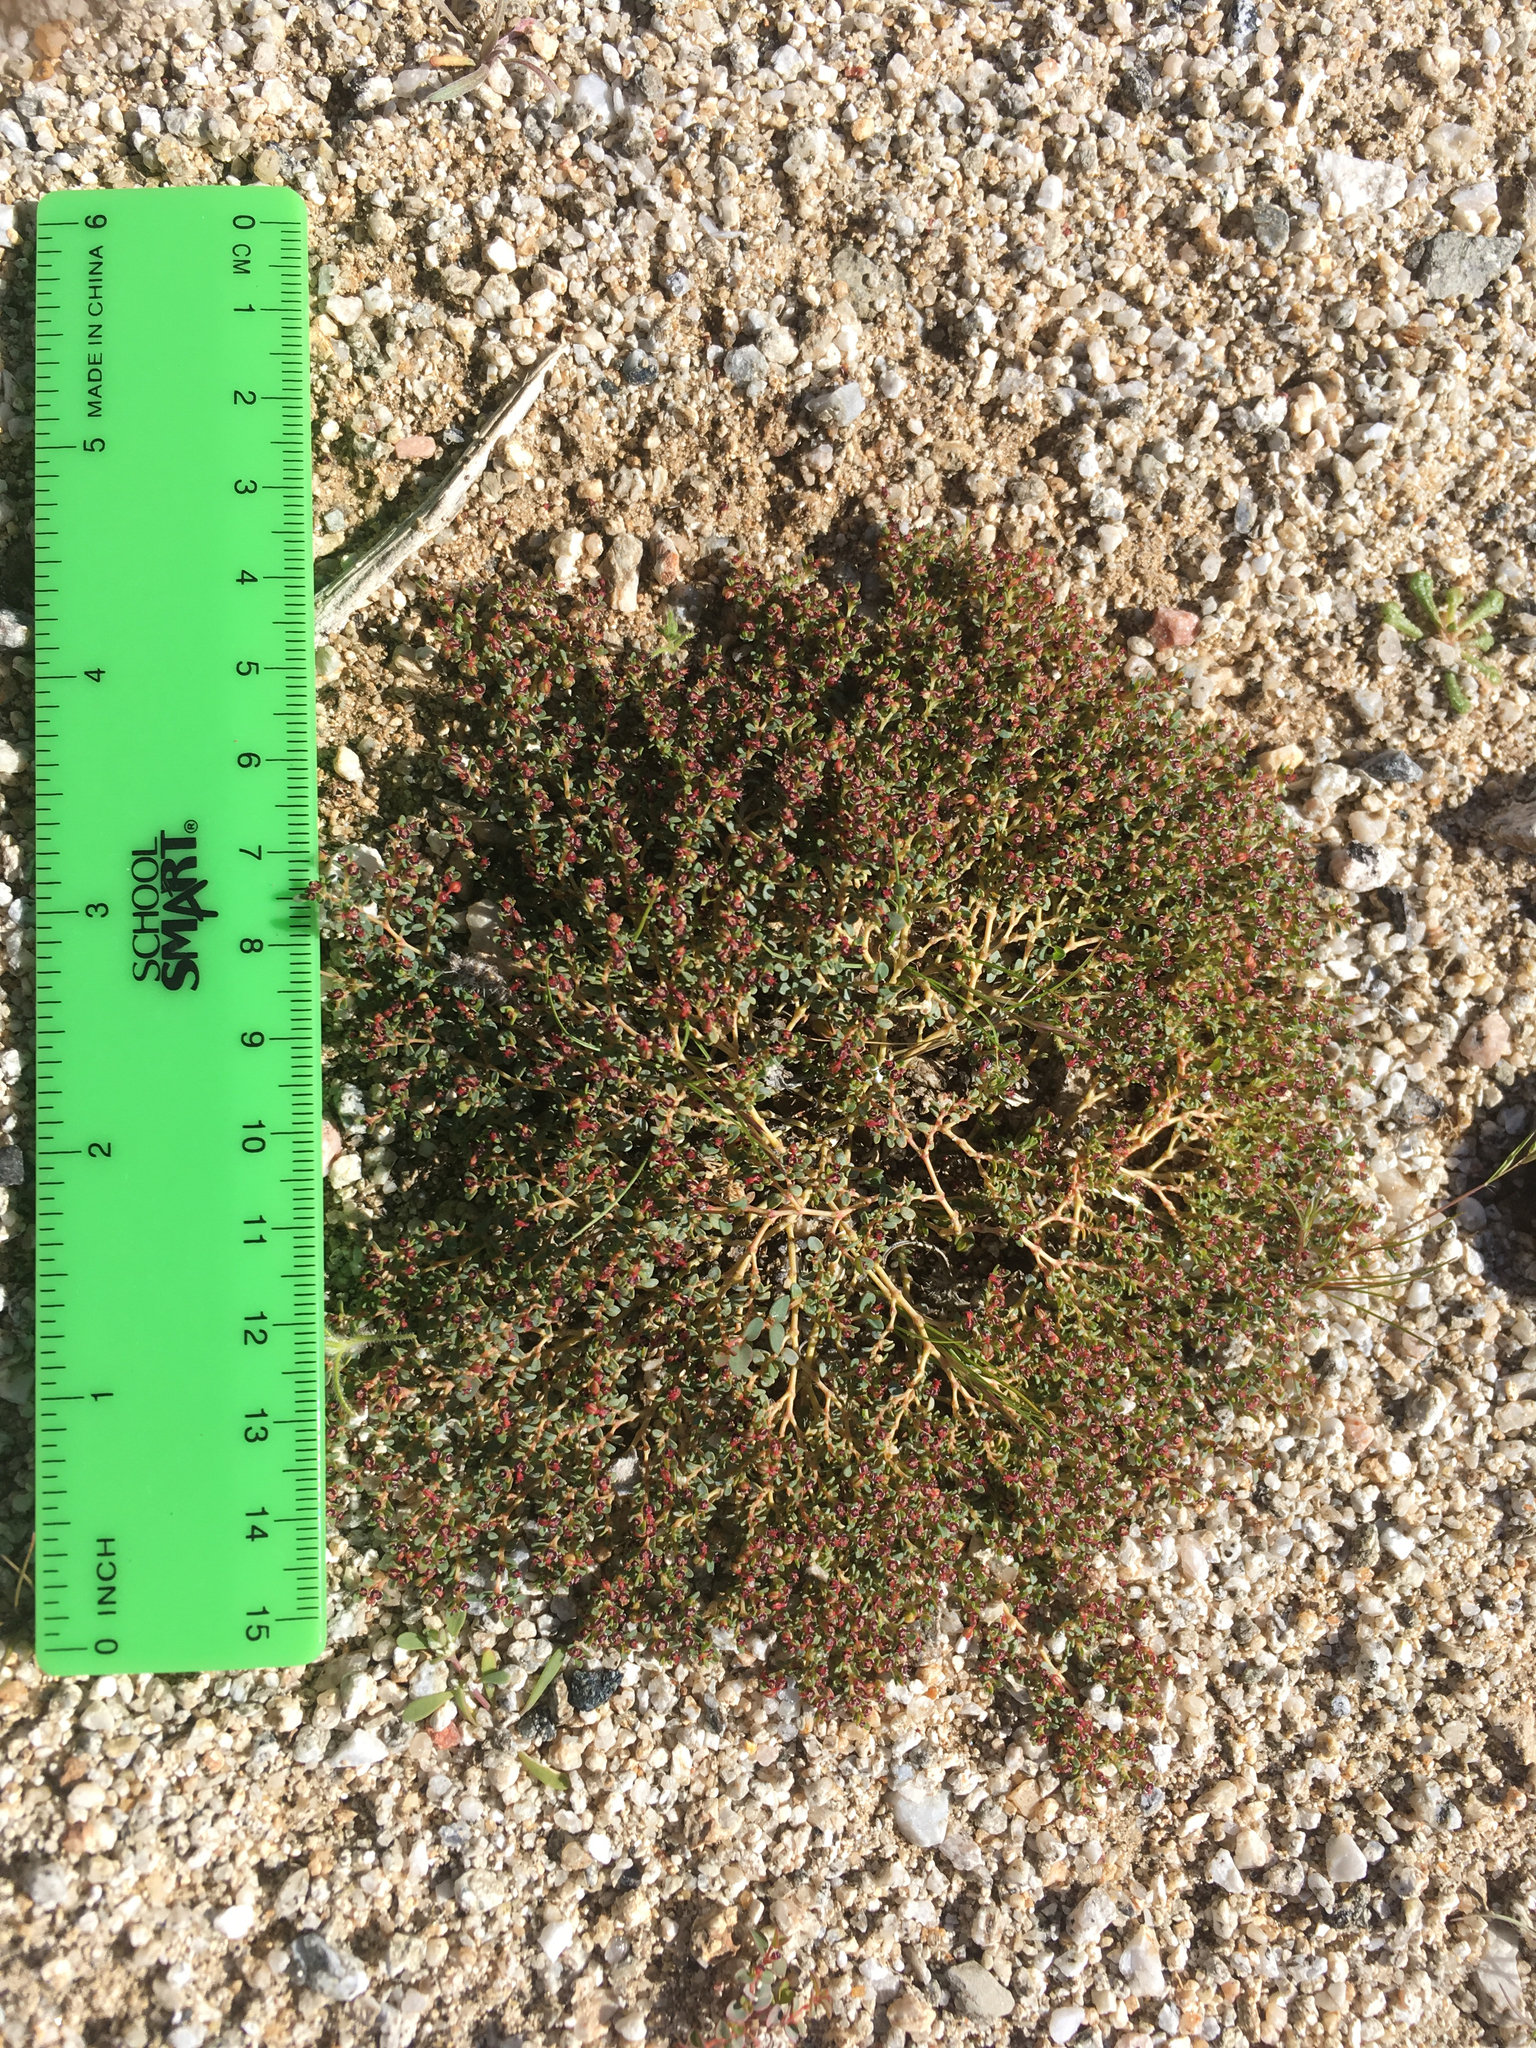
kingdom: Plantae
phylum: Tracheophyta
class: Magnoliopsida
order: Malpighiales
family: Euphorbiaceae
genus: Euphorbia
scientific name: Euphorbia polycarpa
